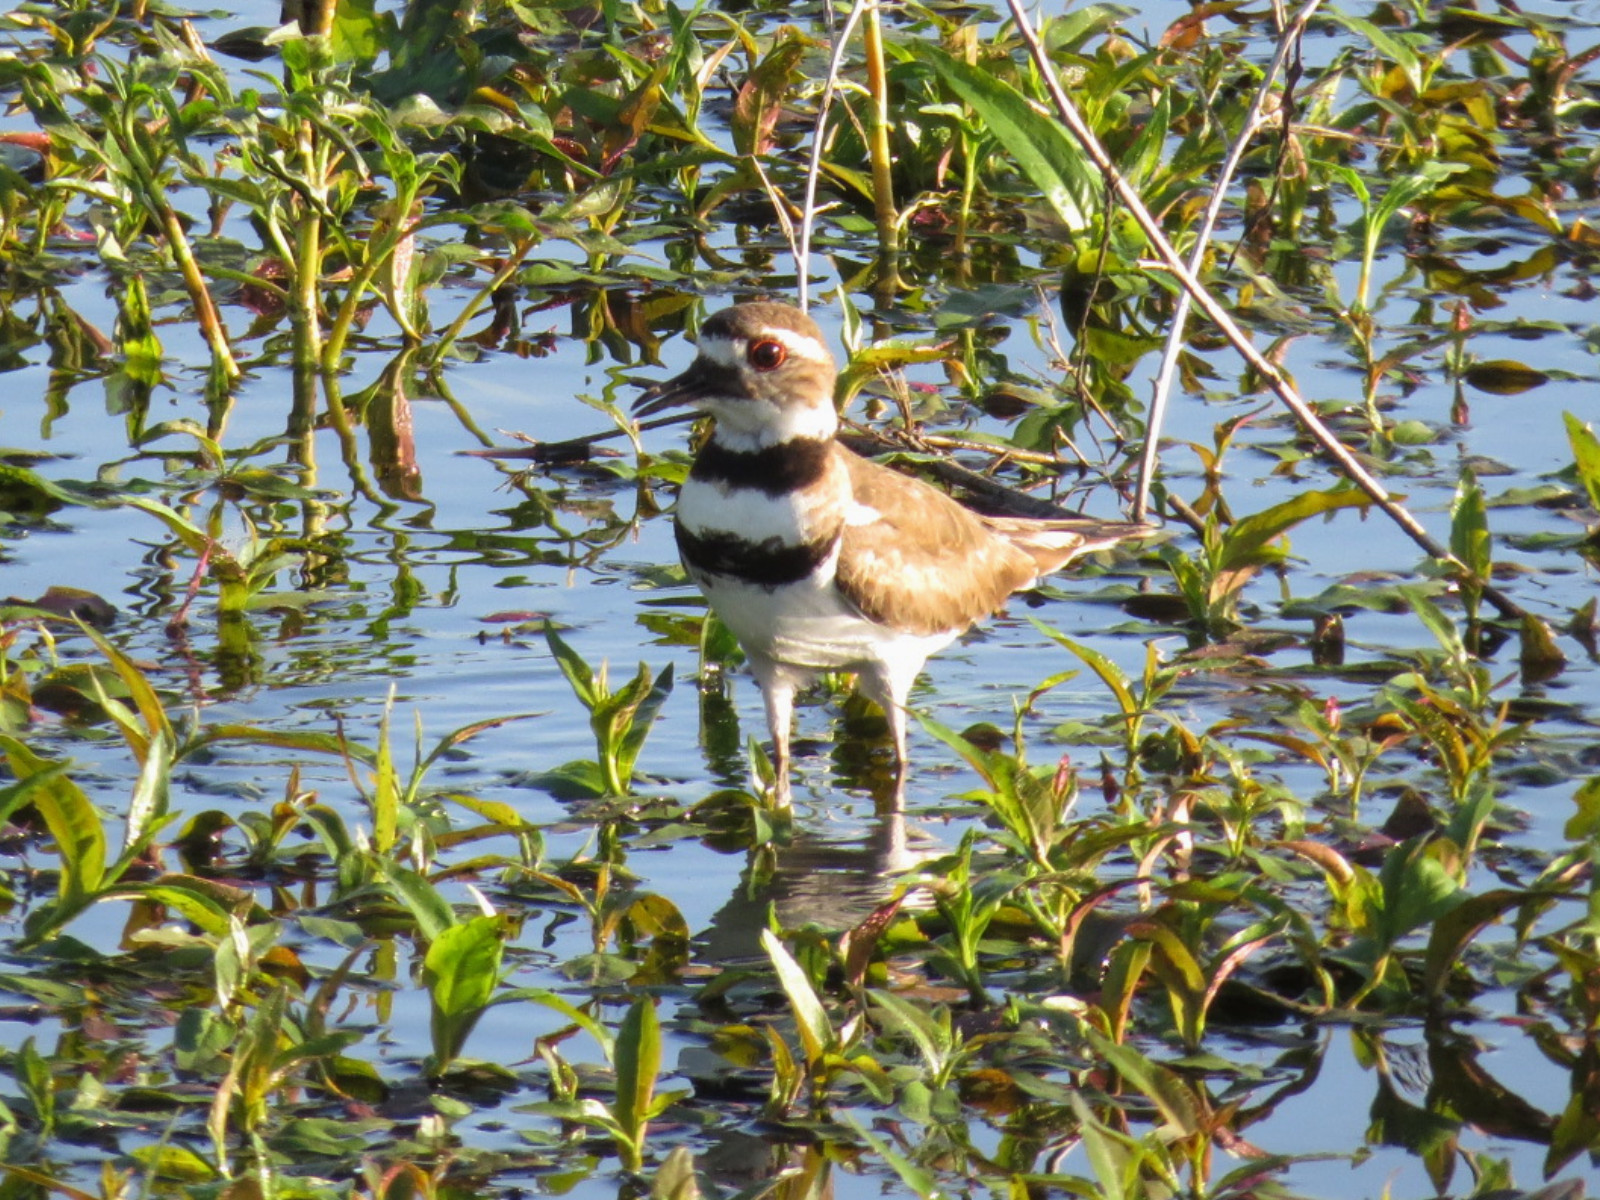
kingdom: Animalia
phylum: Chordata
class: Aves
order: Charadriiformes
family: Charadriidae
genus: Charadrius
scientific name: Charadrius vociferus
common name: Killdeer
